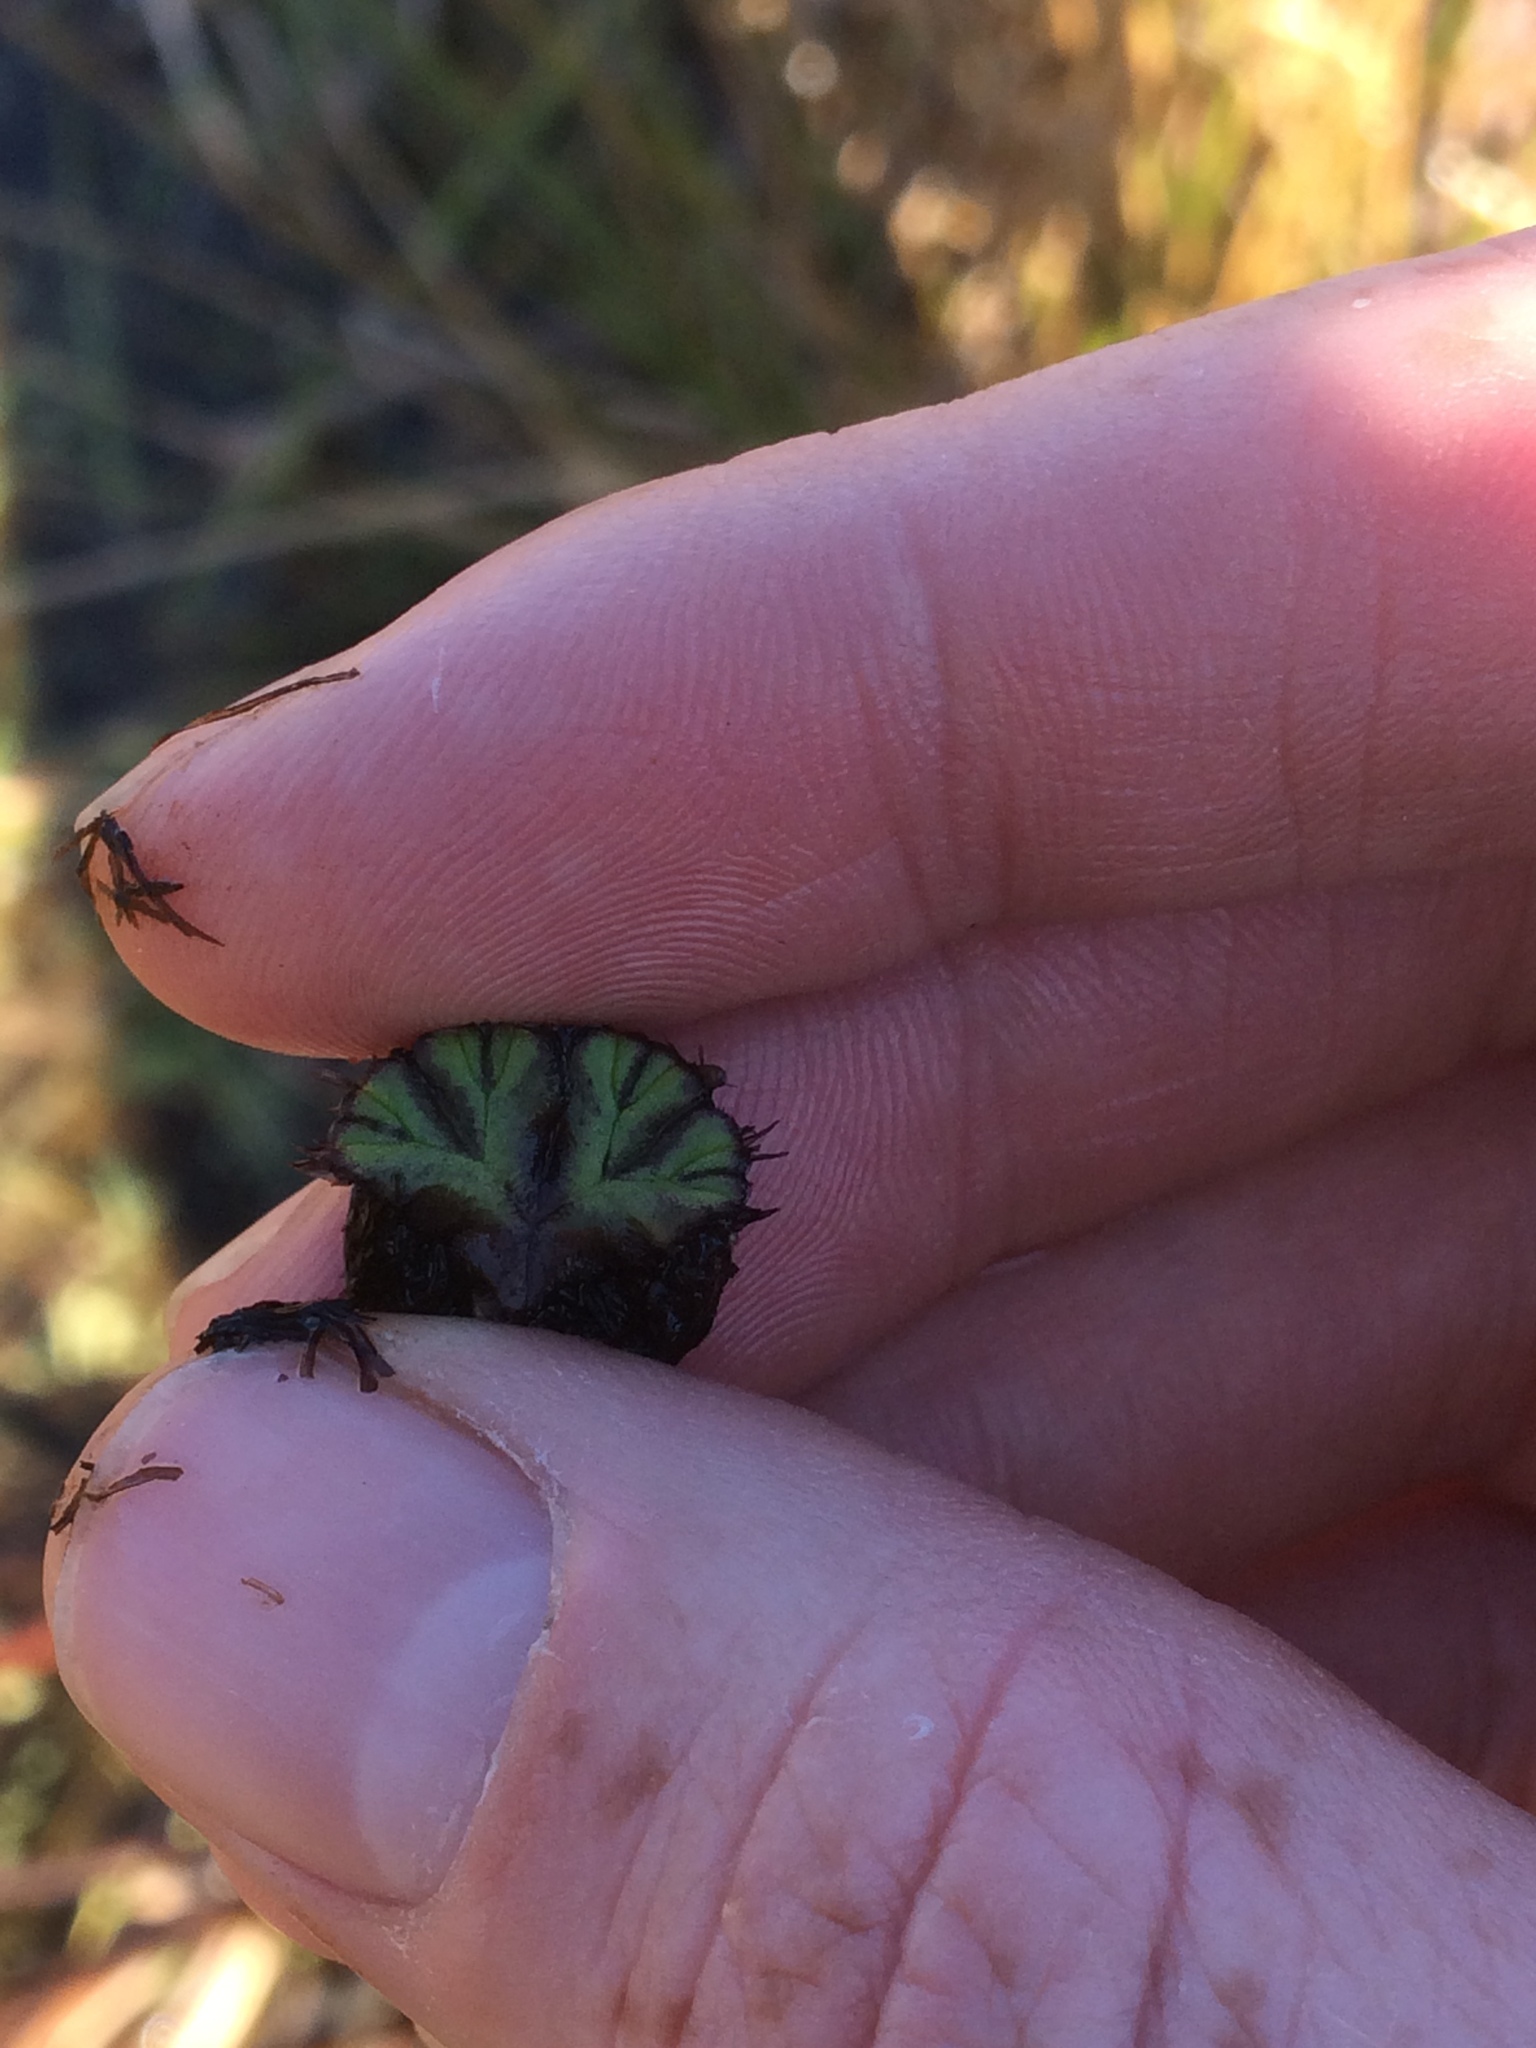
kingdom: Plantae
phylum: Marchantiophyta
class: Marchantiopsida
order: Marchantiales
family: Ricciaceae
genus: Ricciocarpos
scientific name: Ricciocarpos natans
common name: Purple-fringed liverwort
